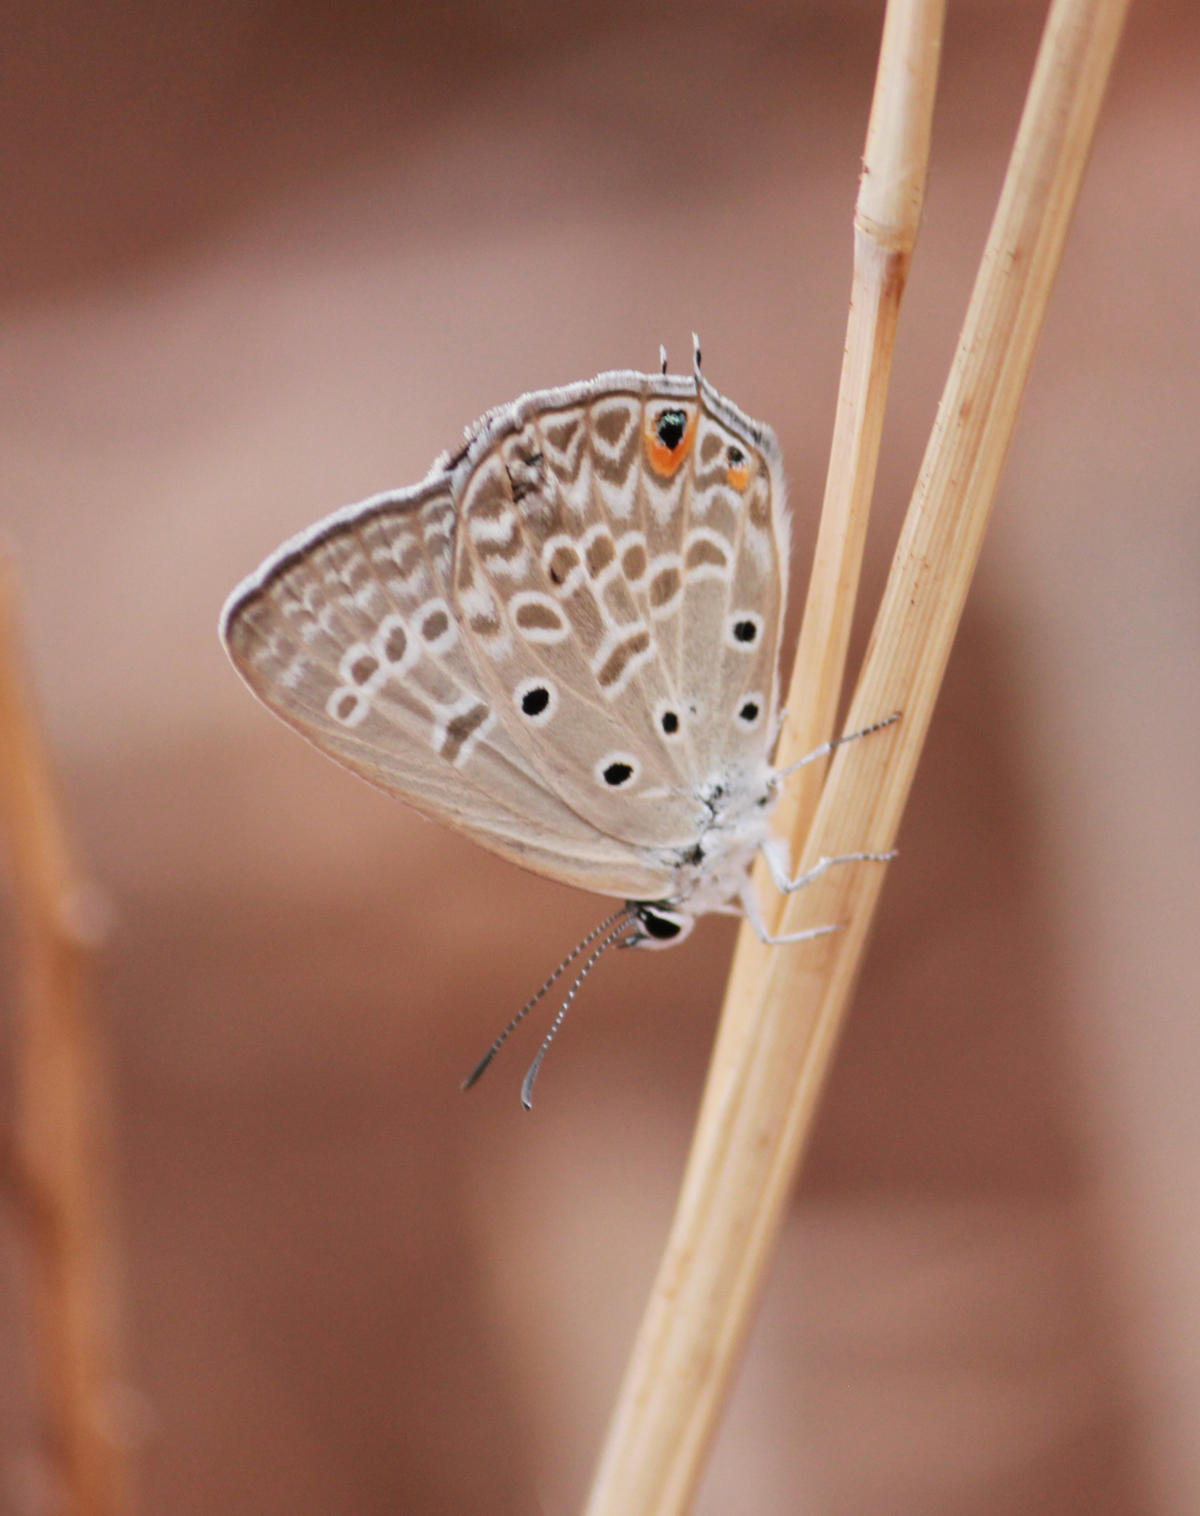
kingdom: Animalia
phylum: Arthropoda
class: Insecta
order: Lepidoptera
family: Lycaenidae
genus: Lepidochrysops
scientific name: Lepidochrysops patricia
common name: Patricia blue
